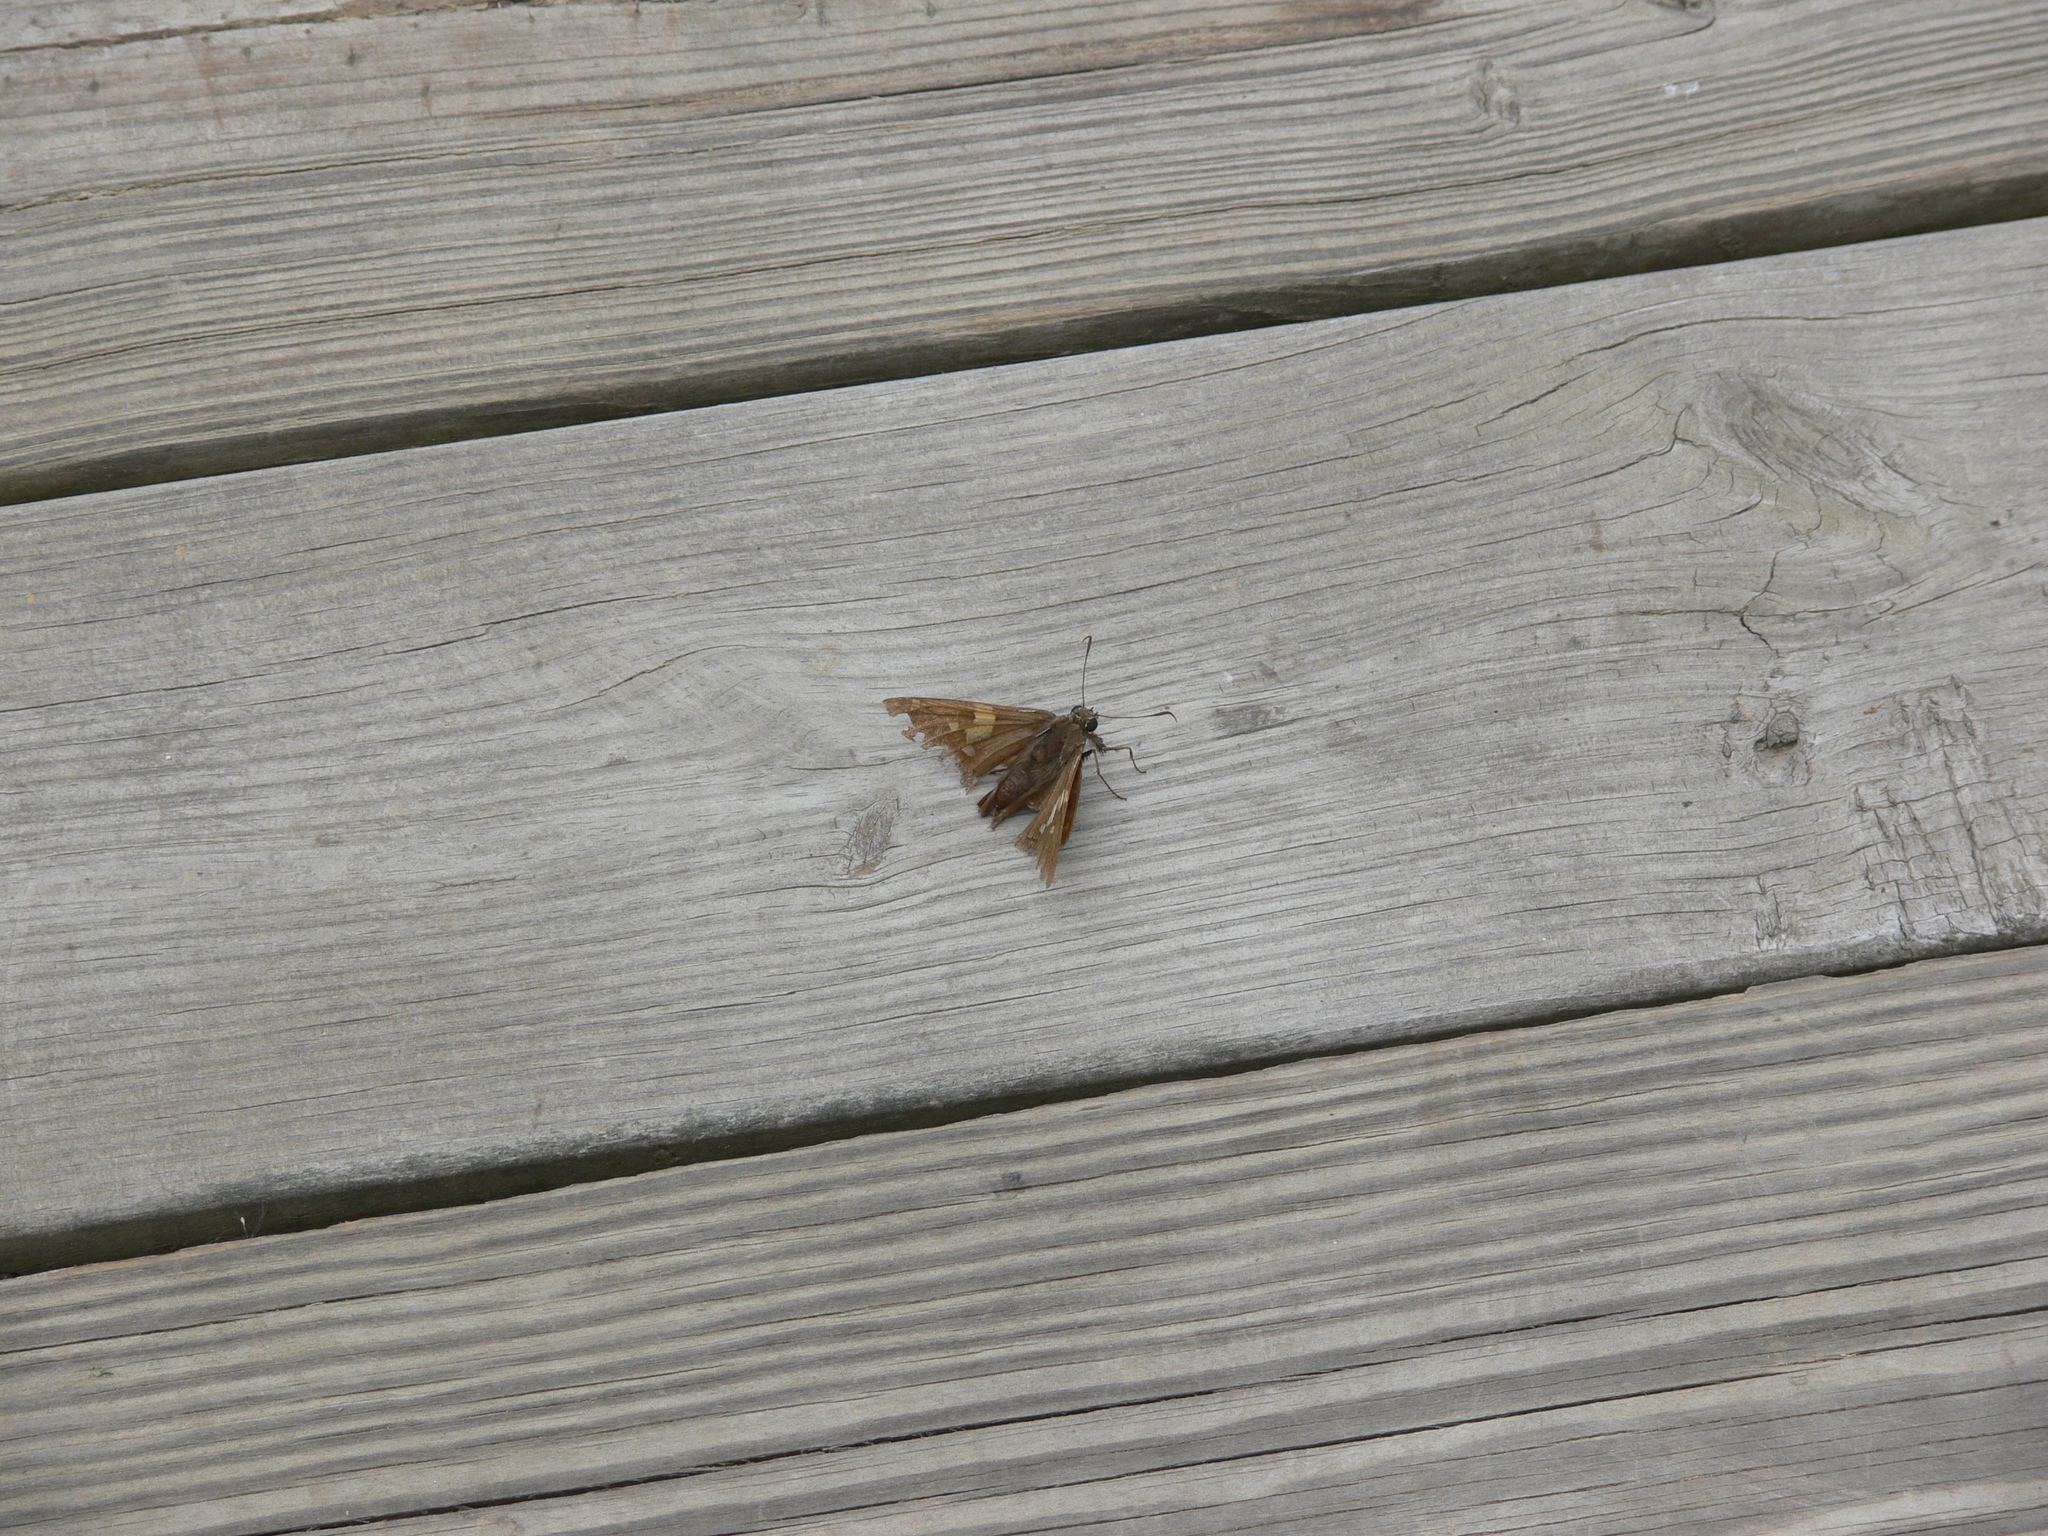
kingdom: Animalia
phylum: Arthropoda
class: Insecta
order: Lepidoptera
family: Hesperiidae
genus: Epargyreus
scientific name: Epargyreus clarus
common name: Silver-spotted skipper
